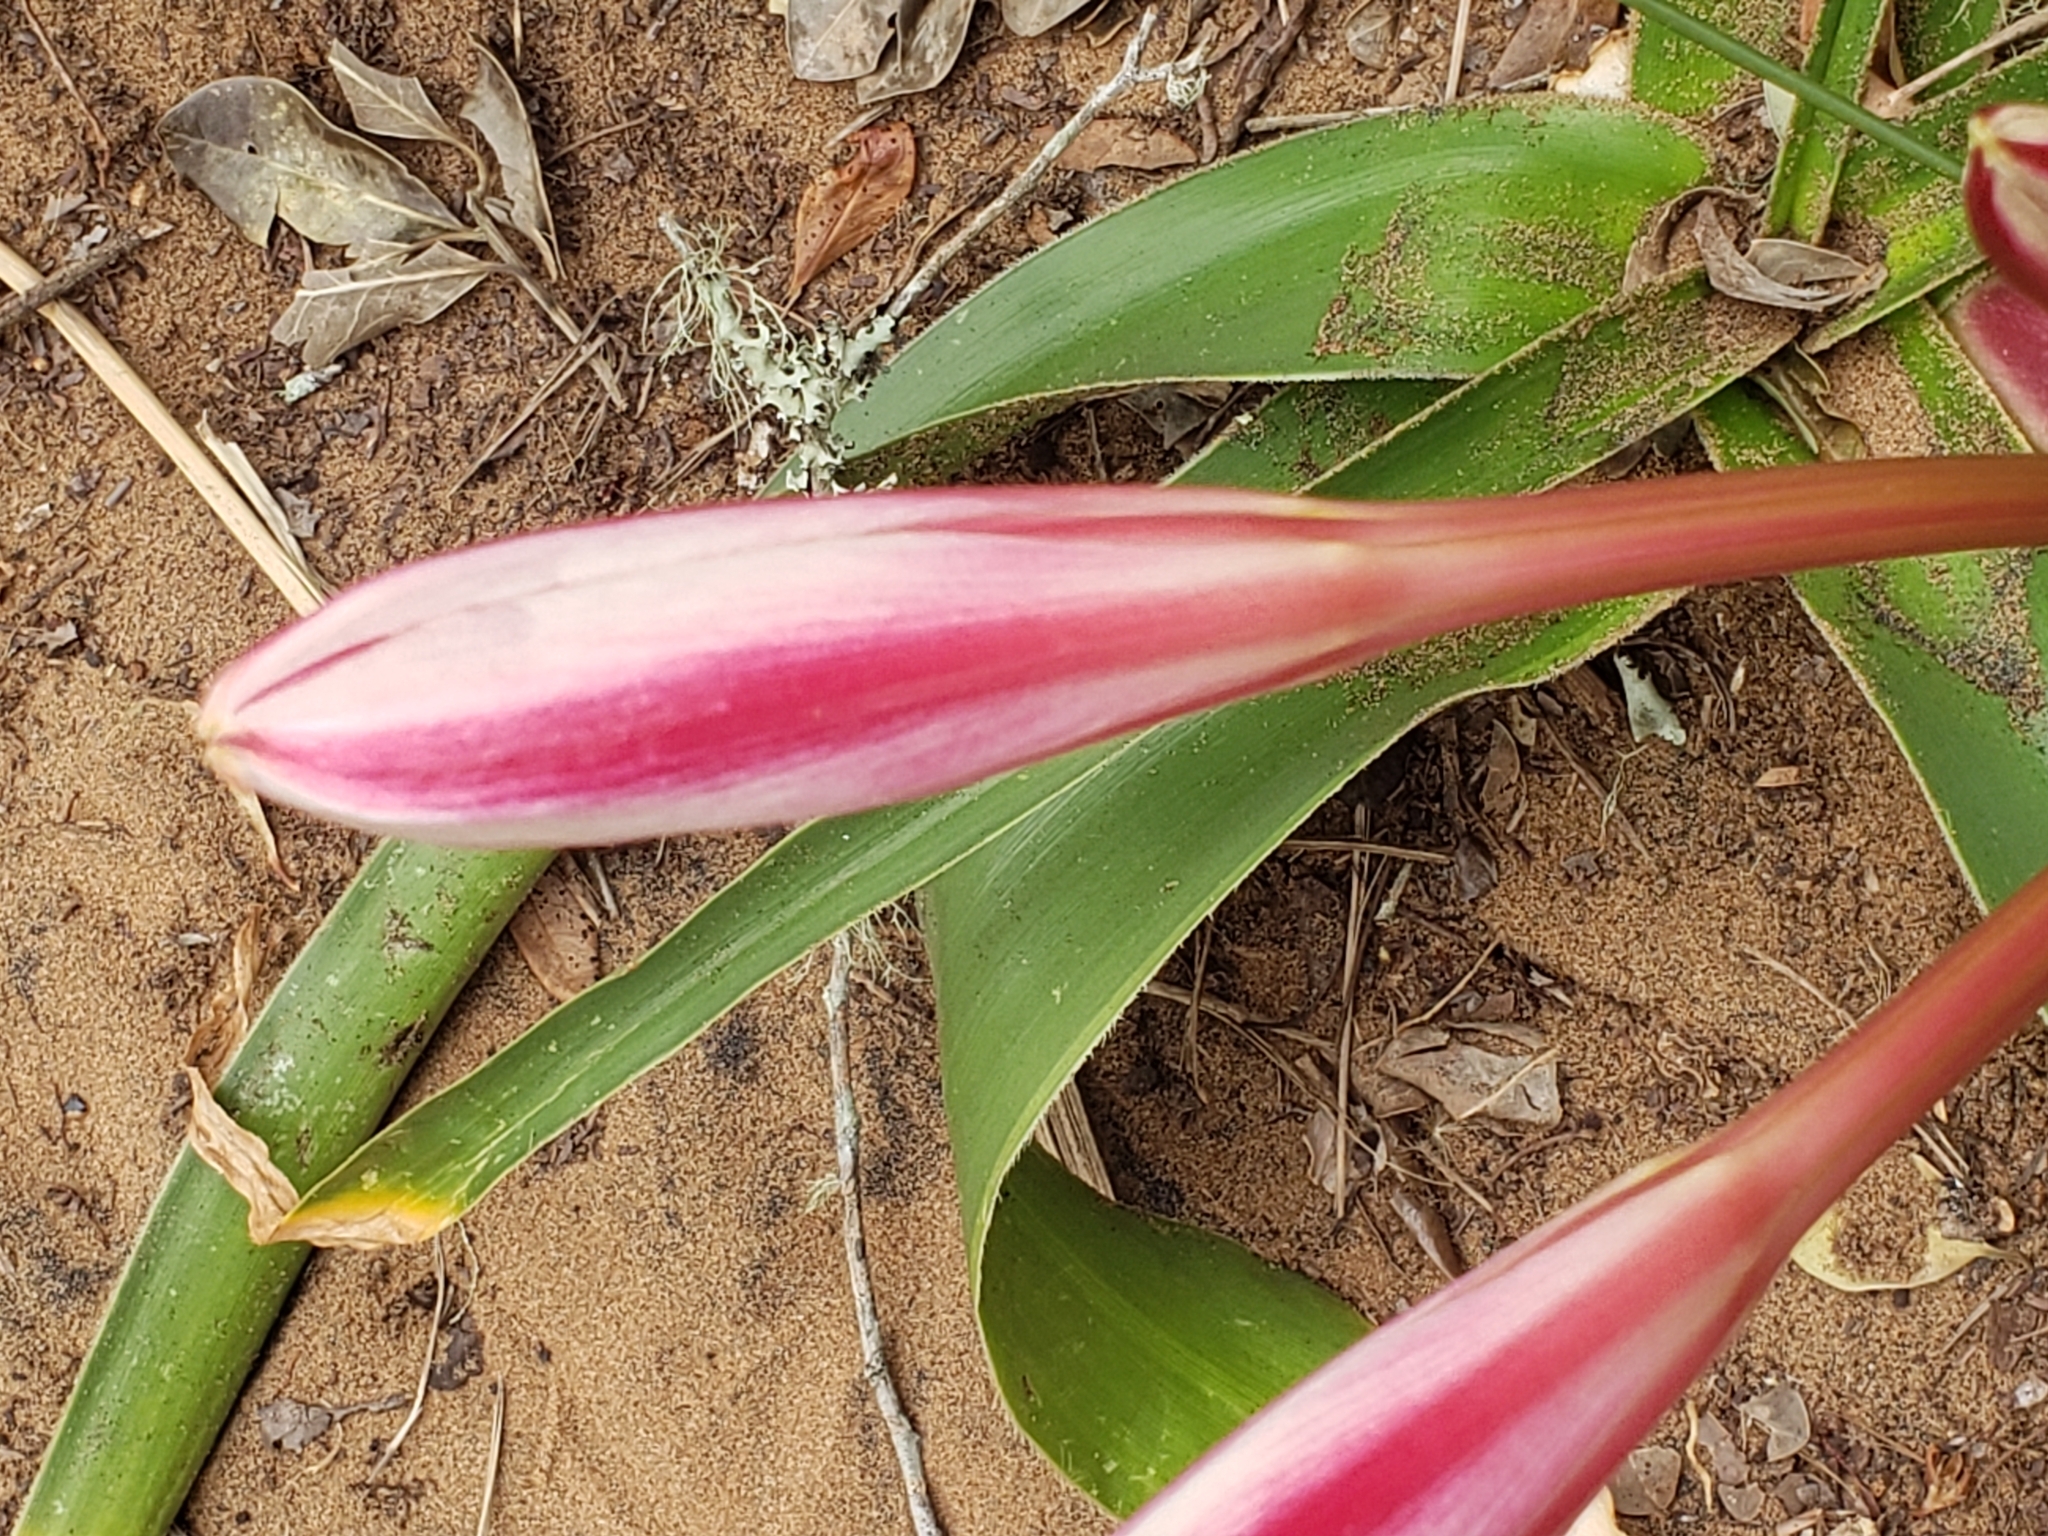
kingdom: Plantae
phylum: Tracheophyta
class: Liliopsida
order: Asparagales
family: Amaryllidaceae
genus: Crinum
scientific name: Crinum stuhlmannii
